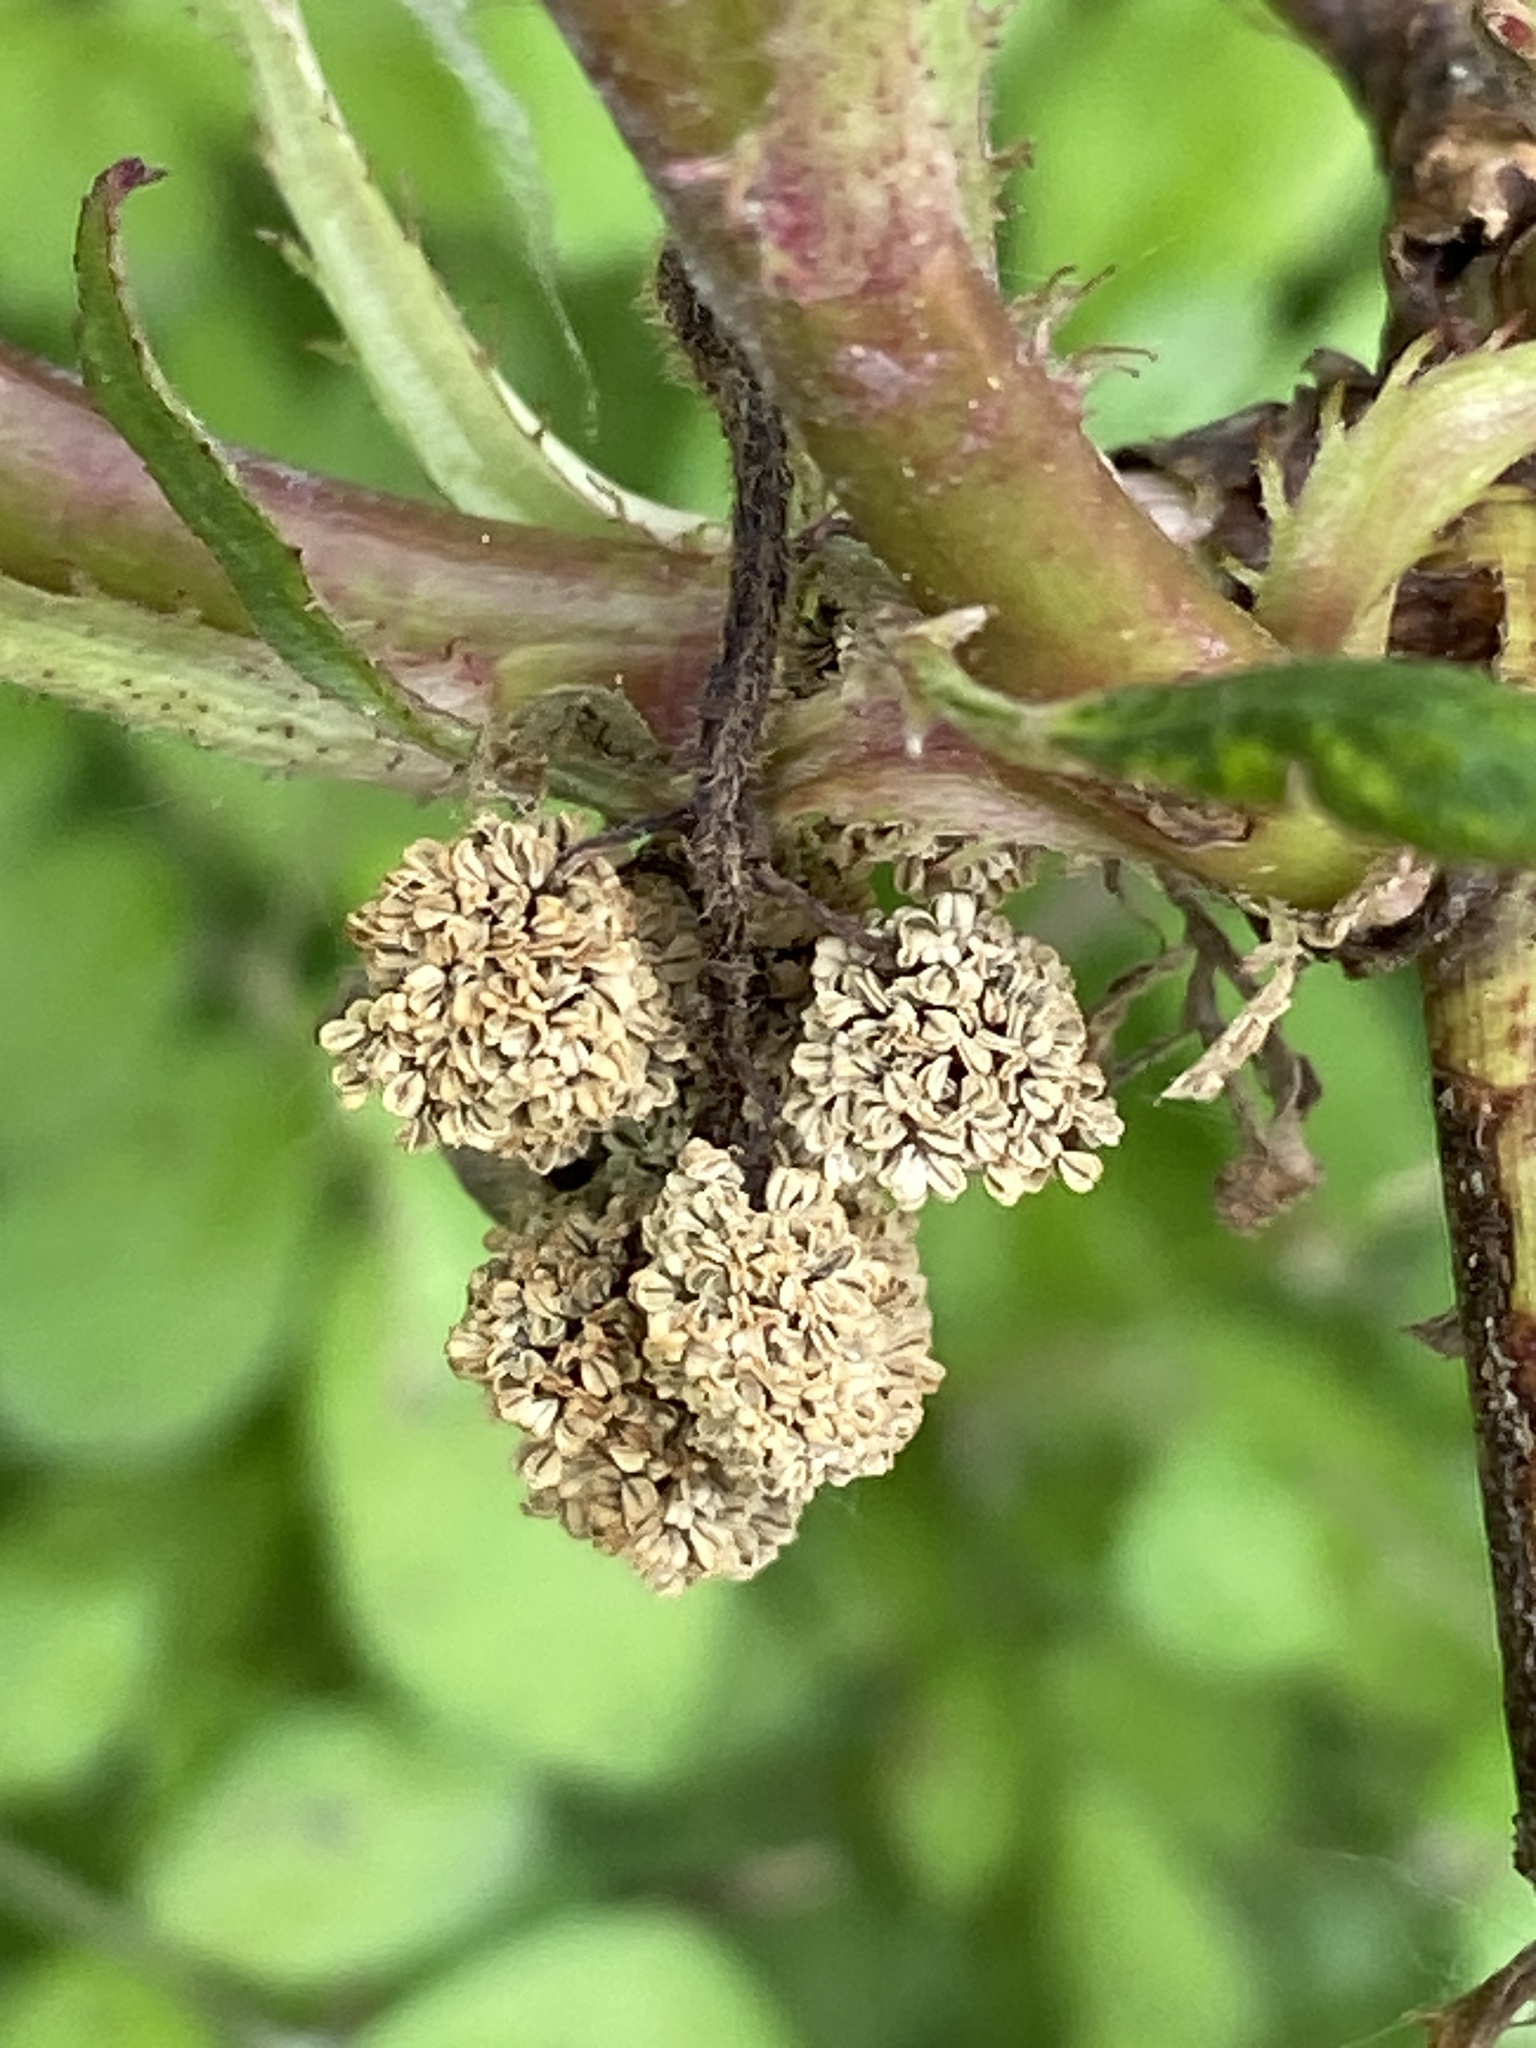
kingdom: Plantae
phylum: Tracheophyta
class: Magnoliopsida
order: Saxifragales
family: Altingiaceae
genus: Liquidambar
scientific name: Liquidambar styraciflua
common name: Sweet gum
